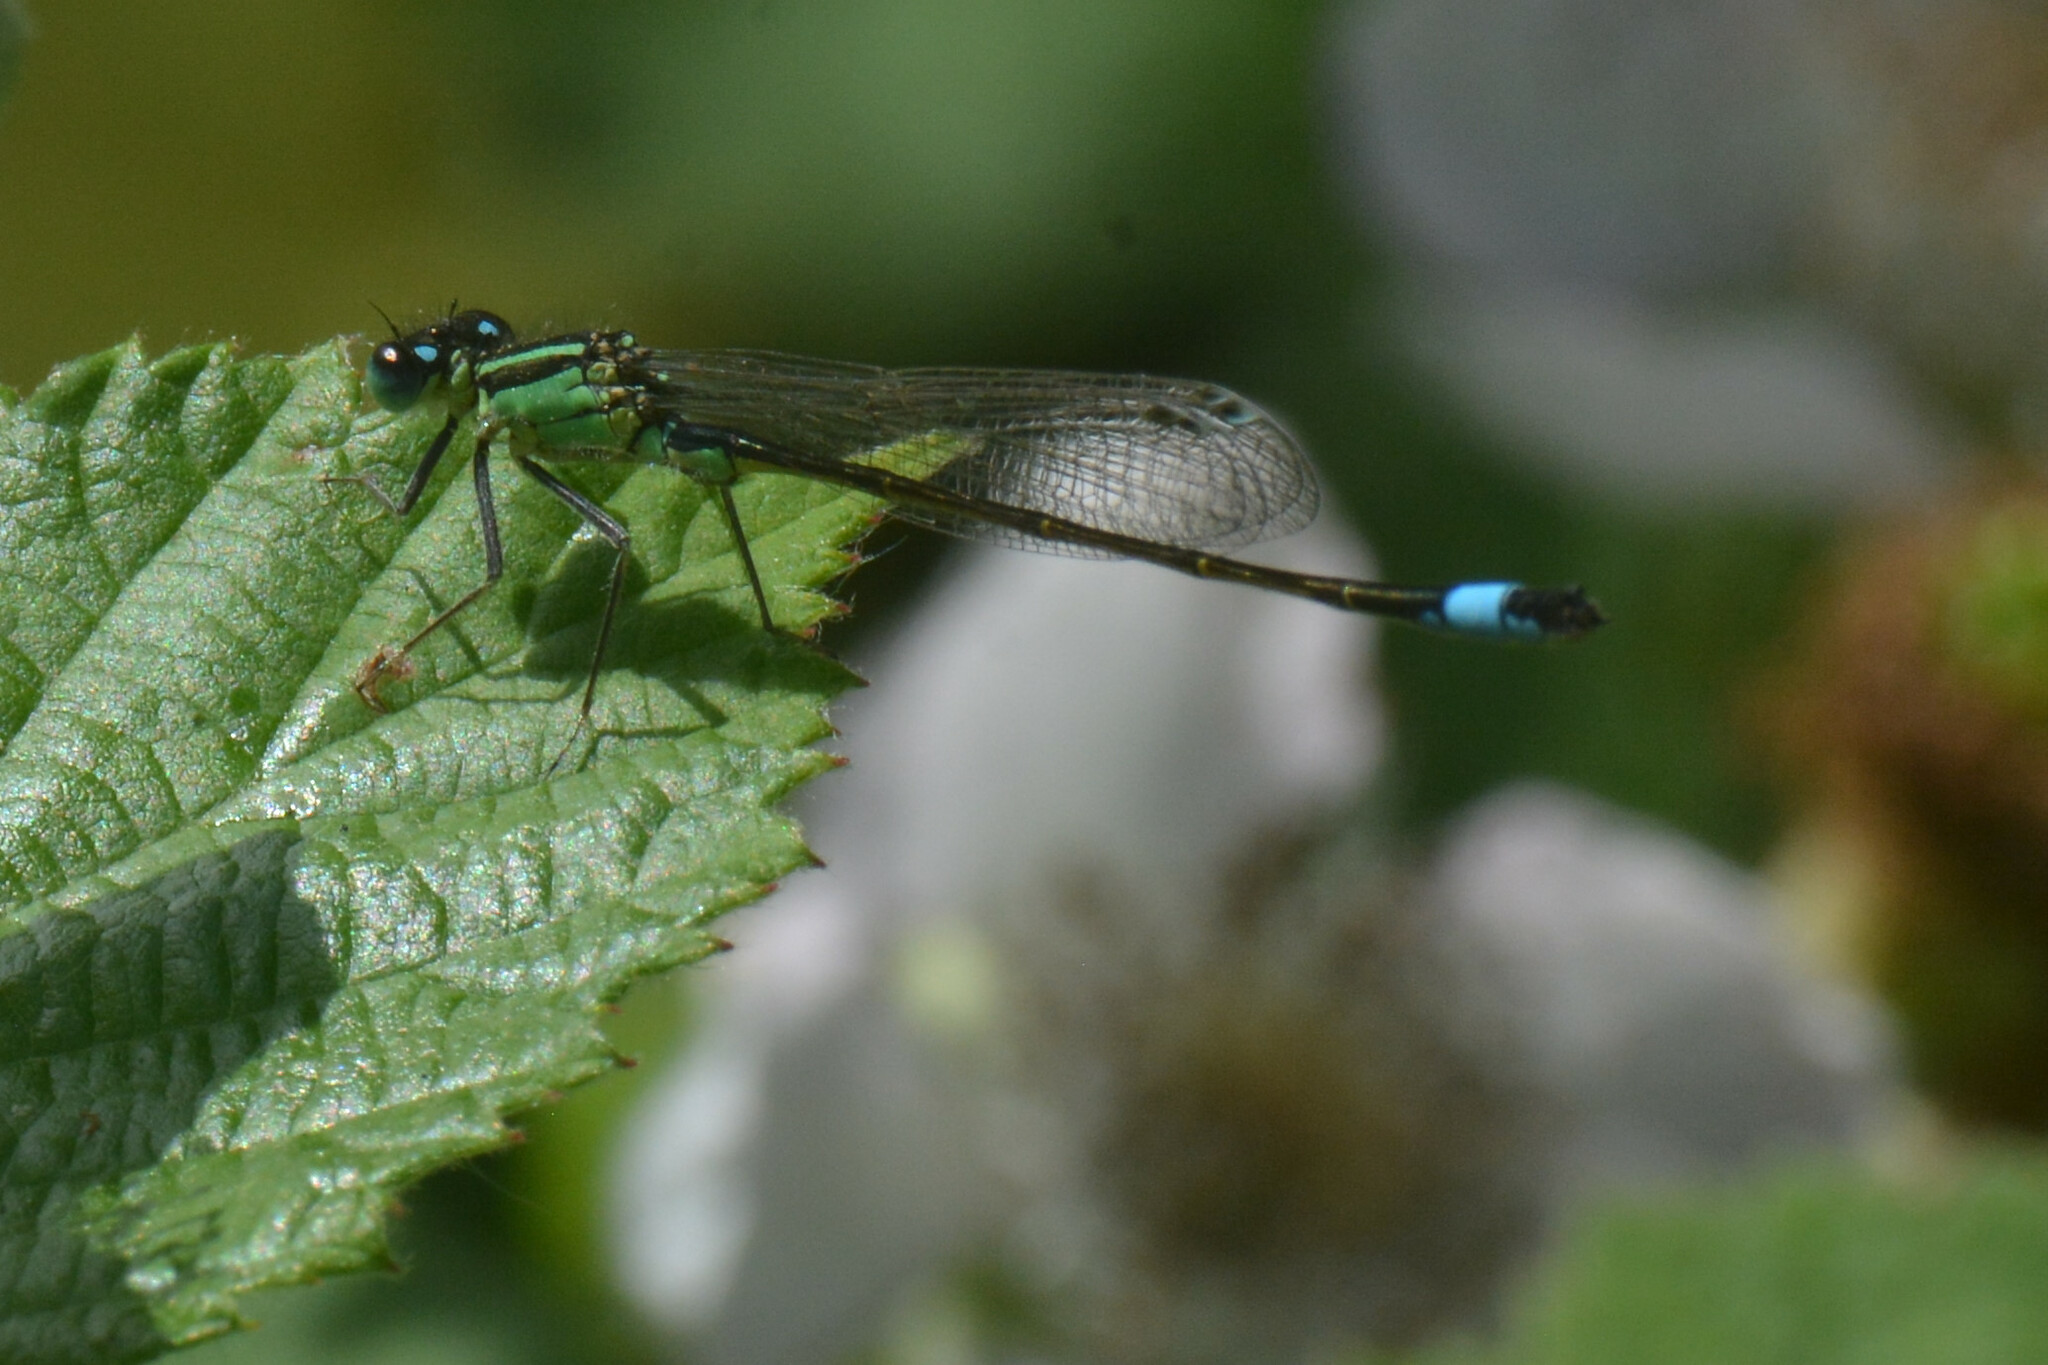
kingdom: Animalia
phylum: Arthropoda
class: Insecta
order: Odonata
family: Coenagrionidae
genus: Ischnura
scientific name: Ischnura elegans
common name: Blue-tailed damselfly
